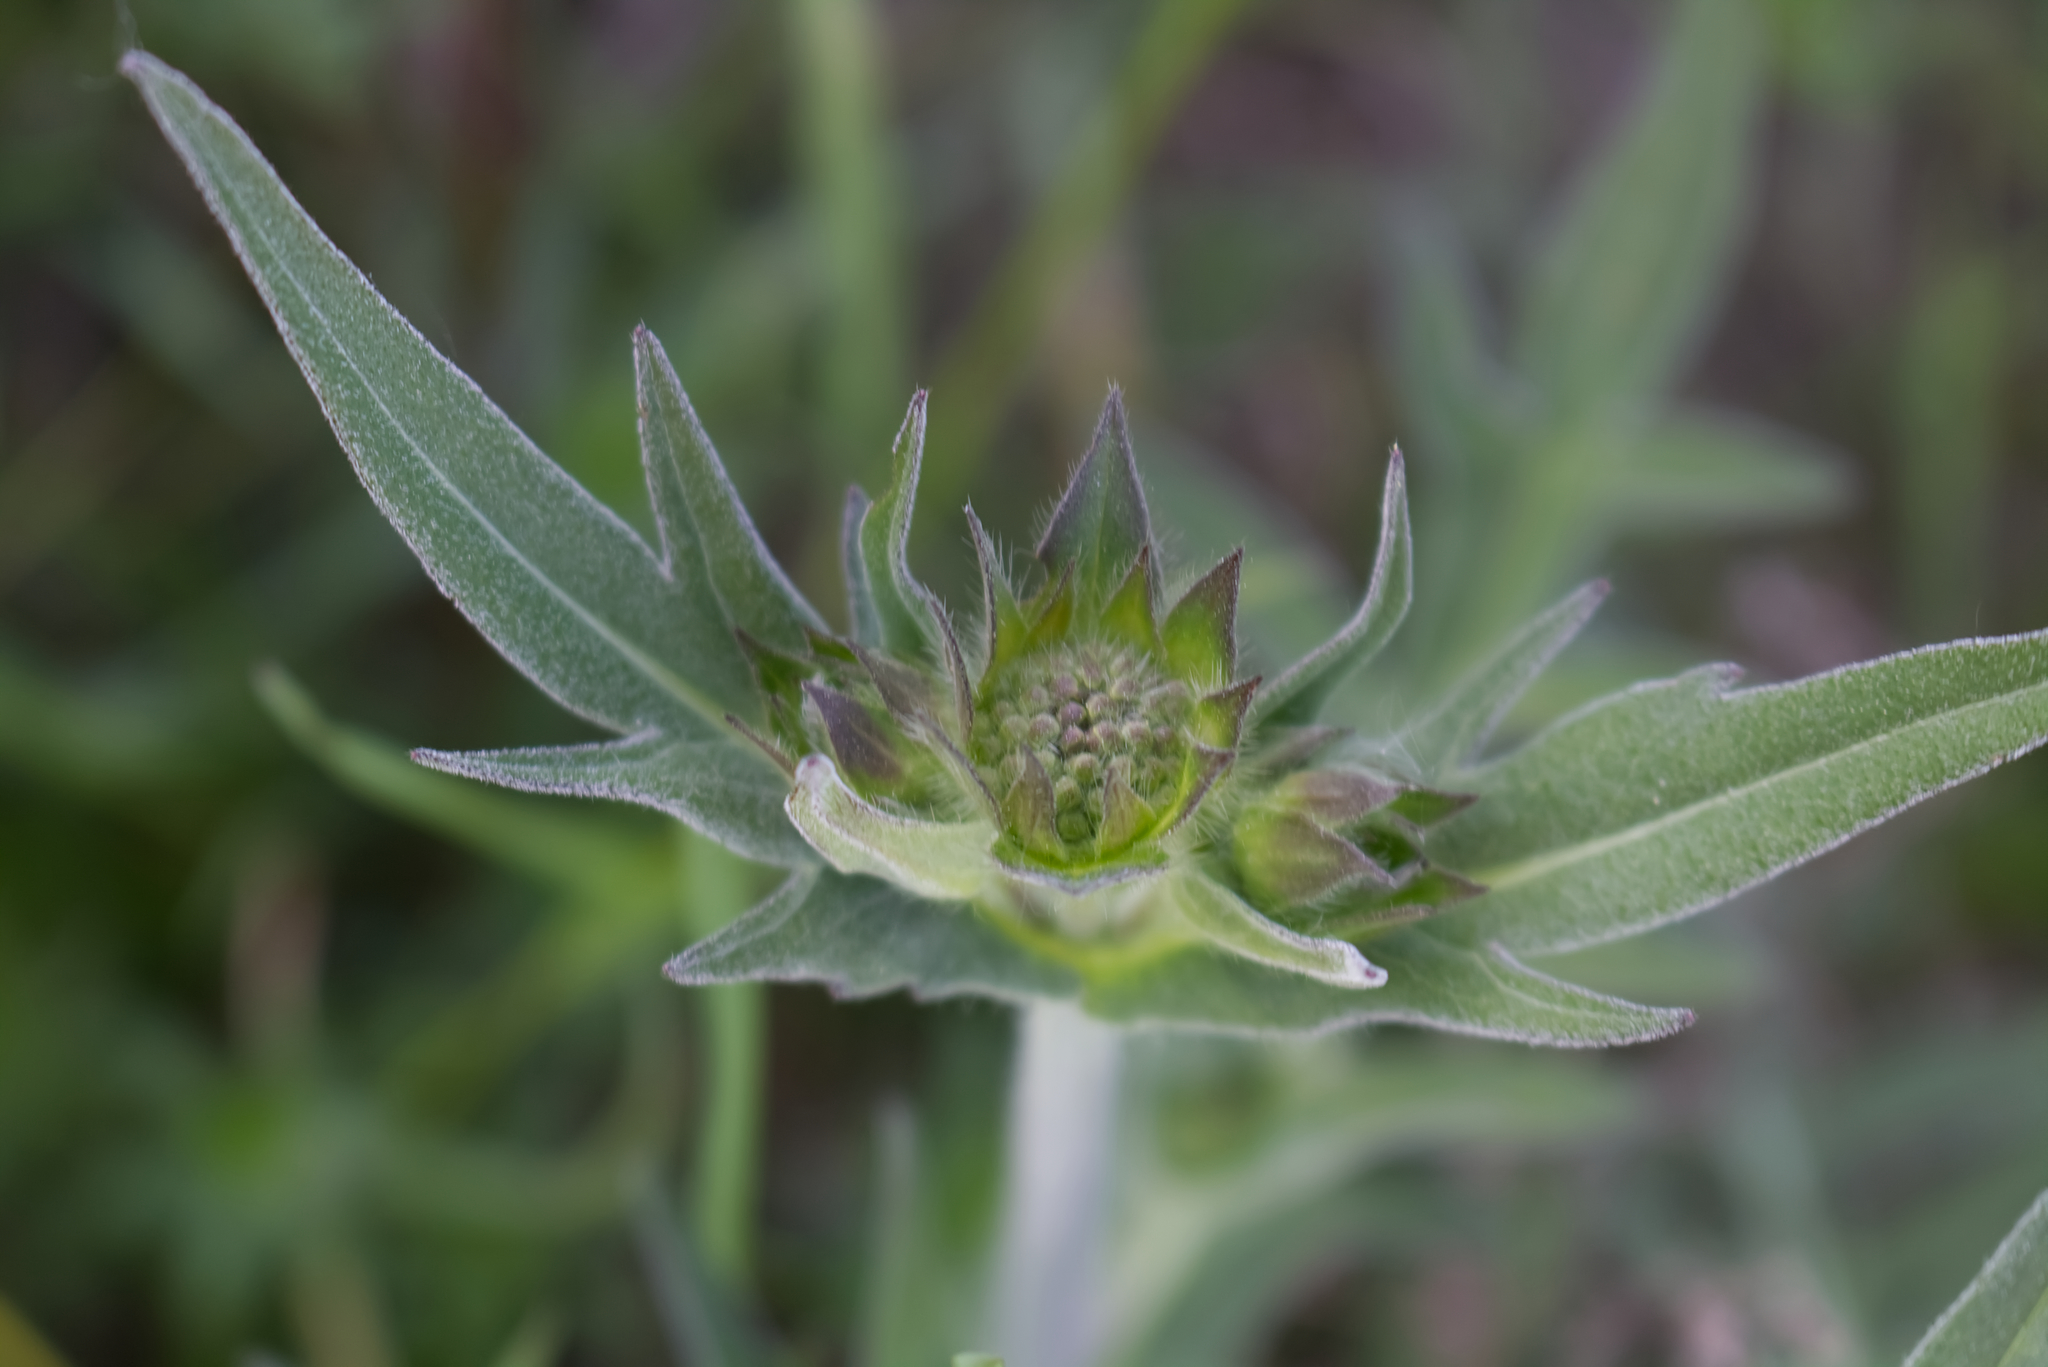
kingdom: Plantae
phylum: Tracheophyta
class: Magnoliopsida
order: Dipsacales
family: Caprifoliaceae
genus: Knautia
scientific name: Knautia arvensis
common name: Field scabiosa
